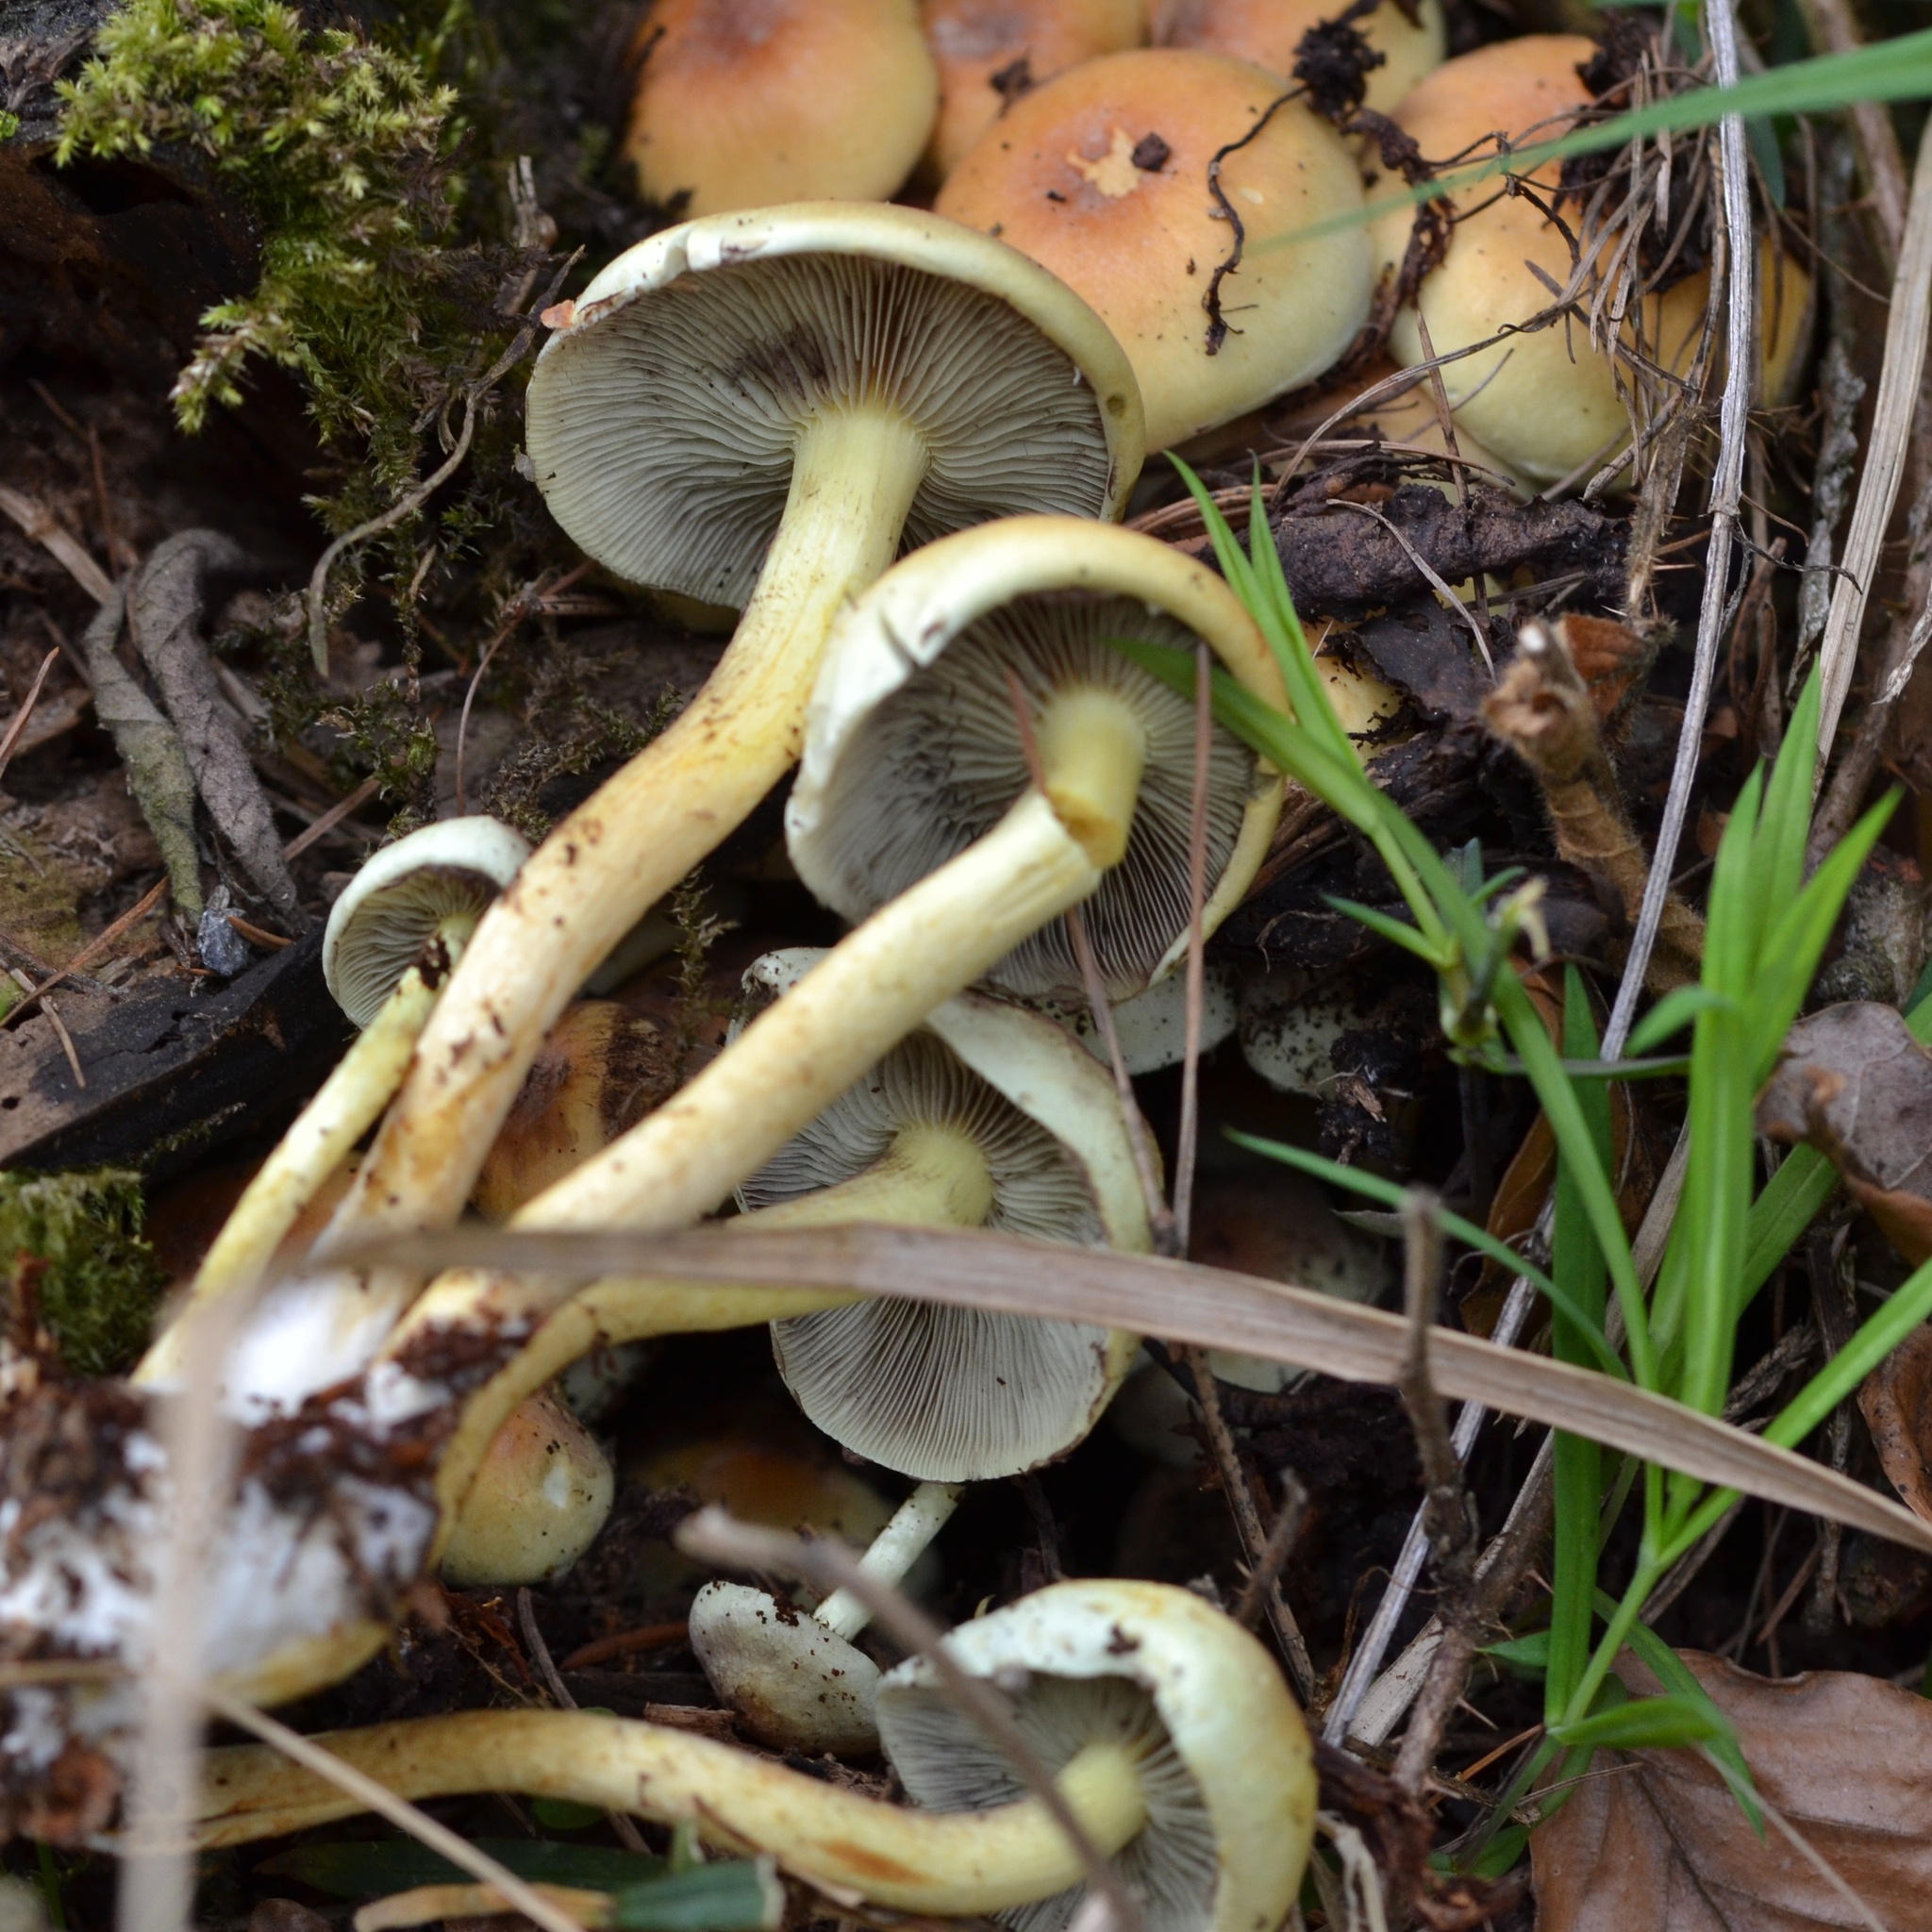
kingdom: Fungi
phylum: Basidiomycota
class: Agaricomycetes
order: Agaricales
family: Strophariaceae
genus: Hypholoma
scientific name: Hypholoma fasciculare
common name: Sulphur tuft
